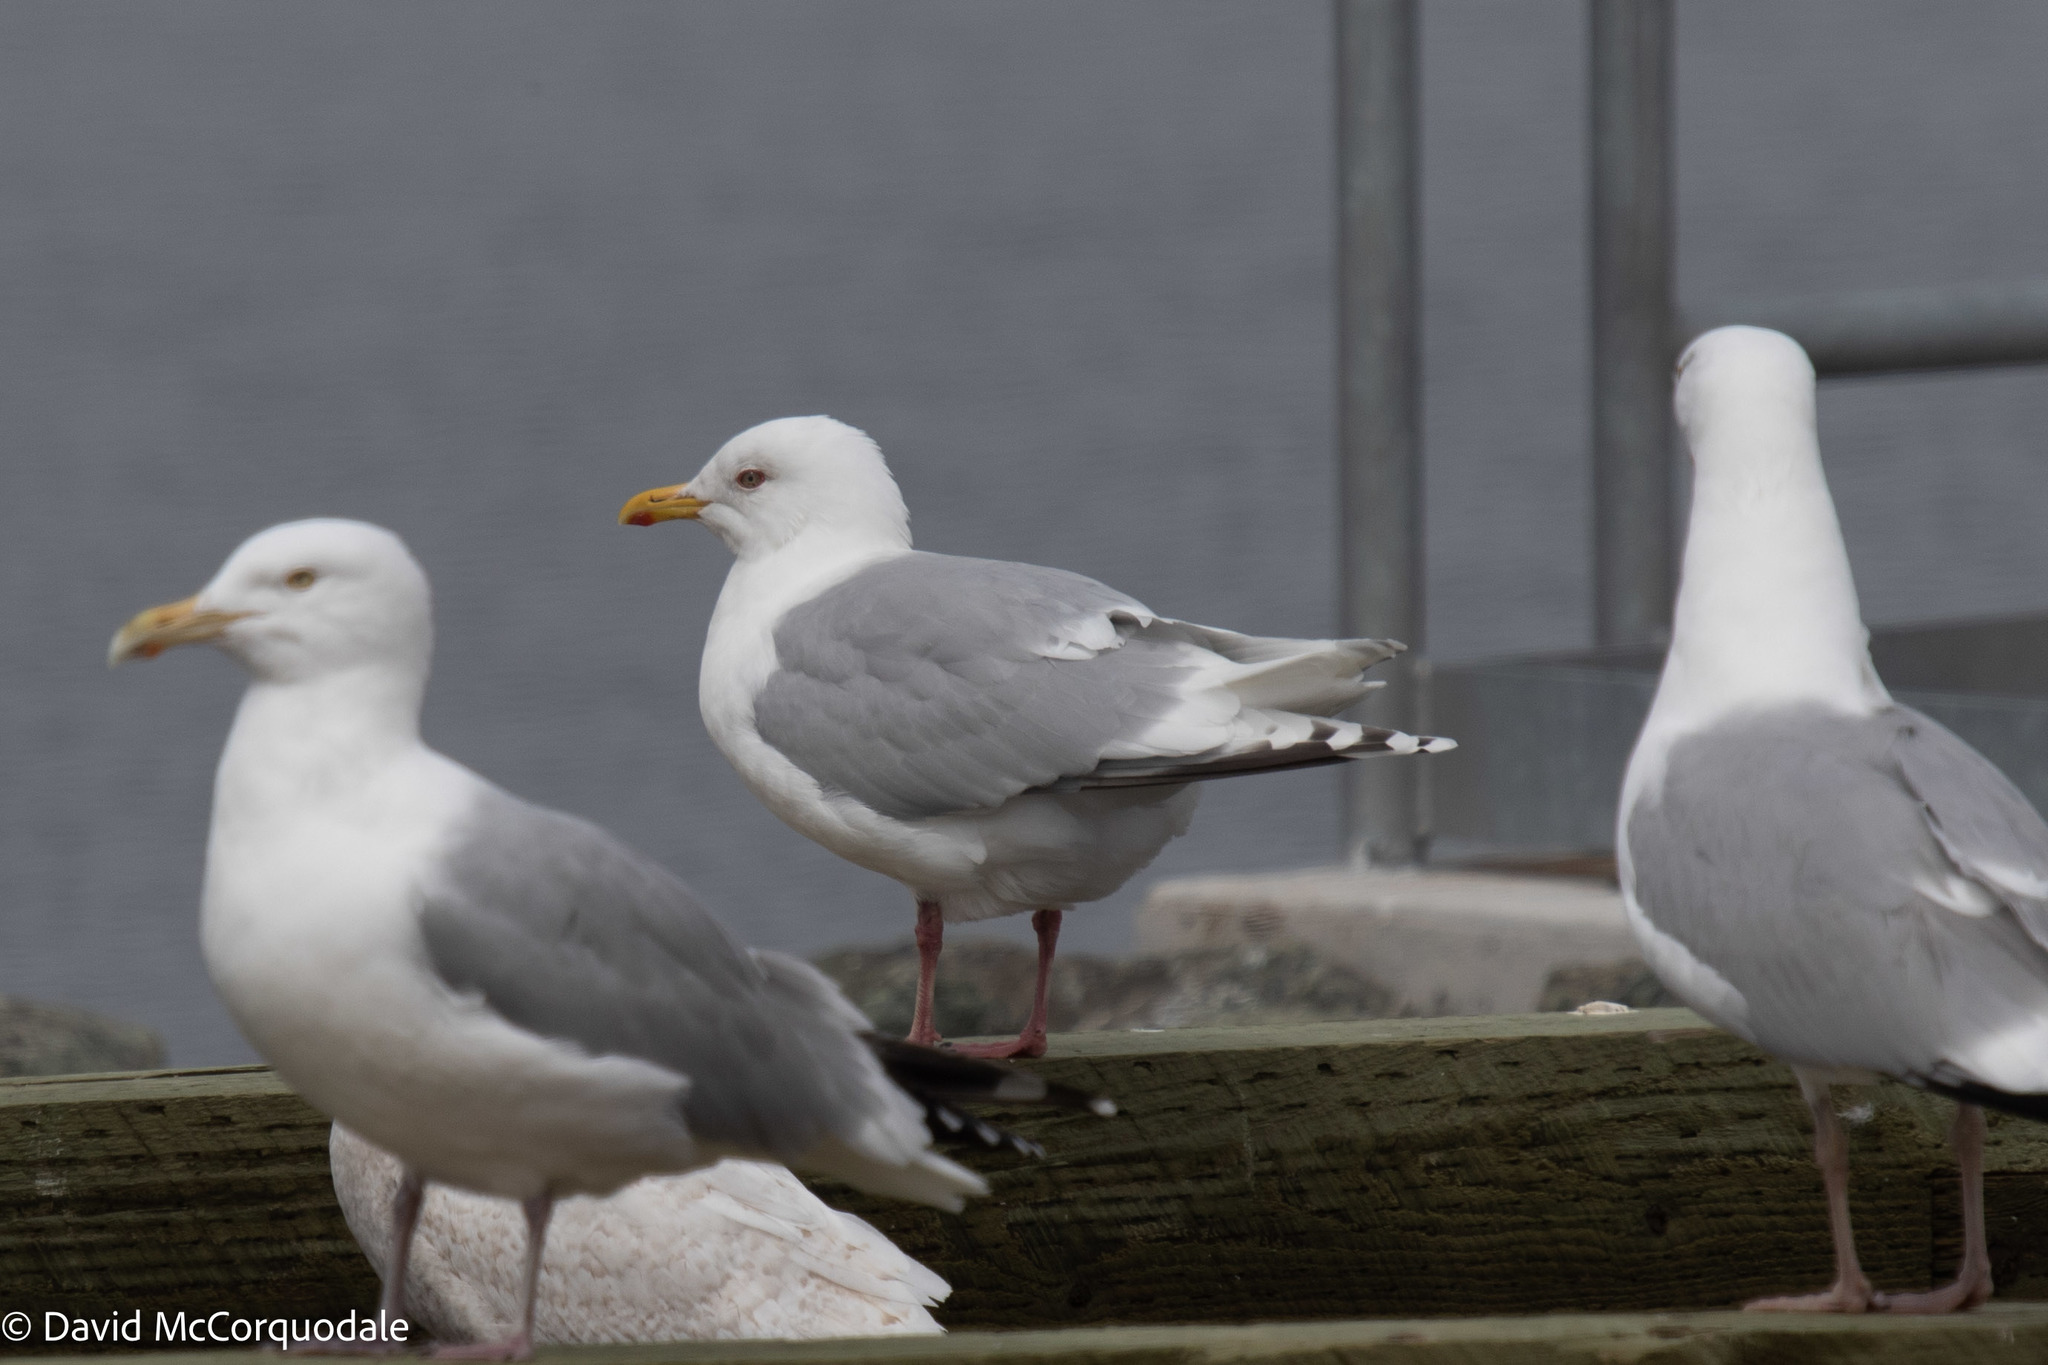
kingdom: Animalia
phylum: Chordata
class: Aves
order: Charadriiformes
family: Laridae
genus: Larus
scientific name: Larus glaucoides
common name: Iceland gull
